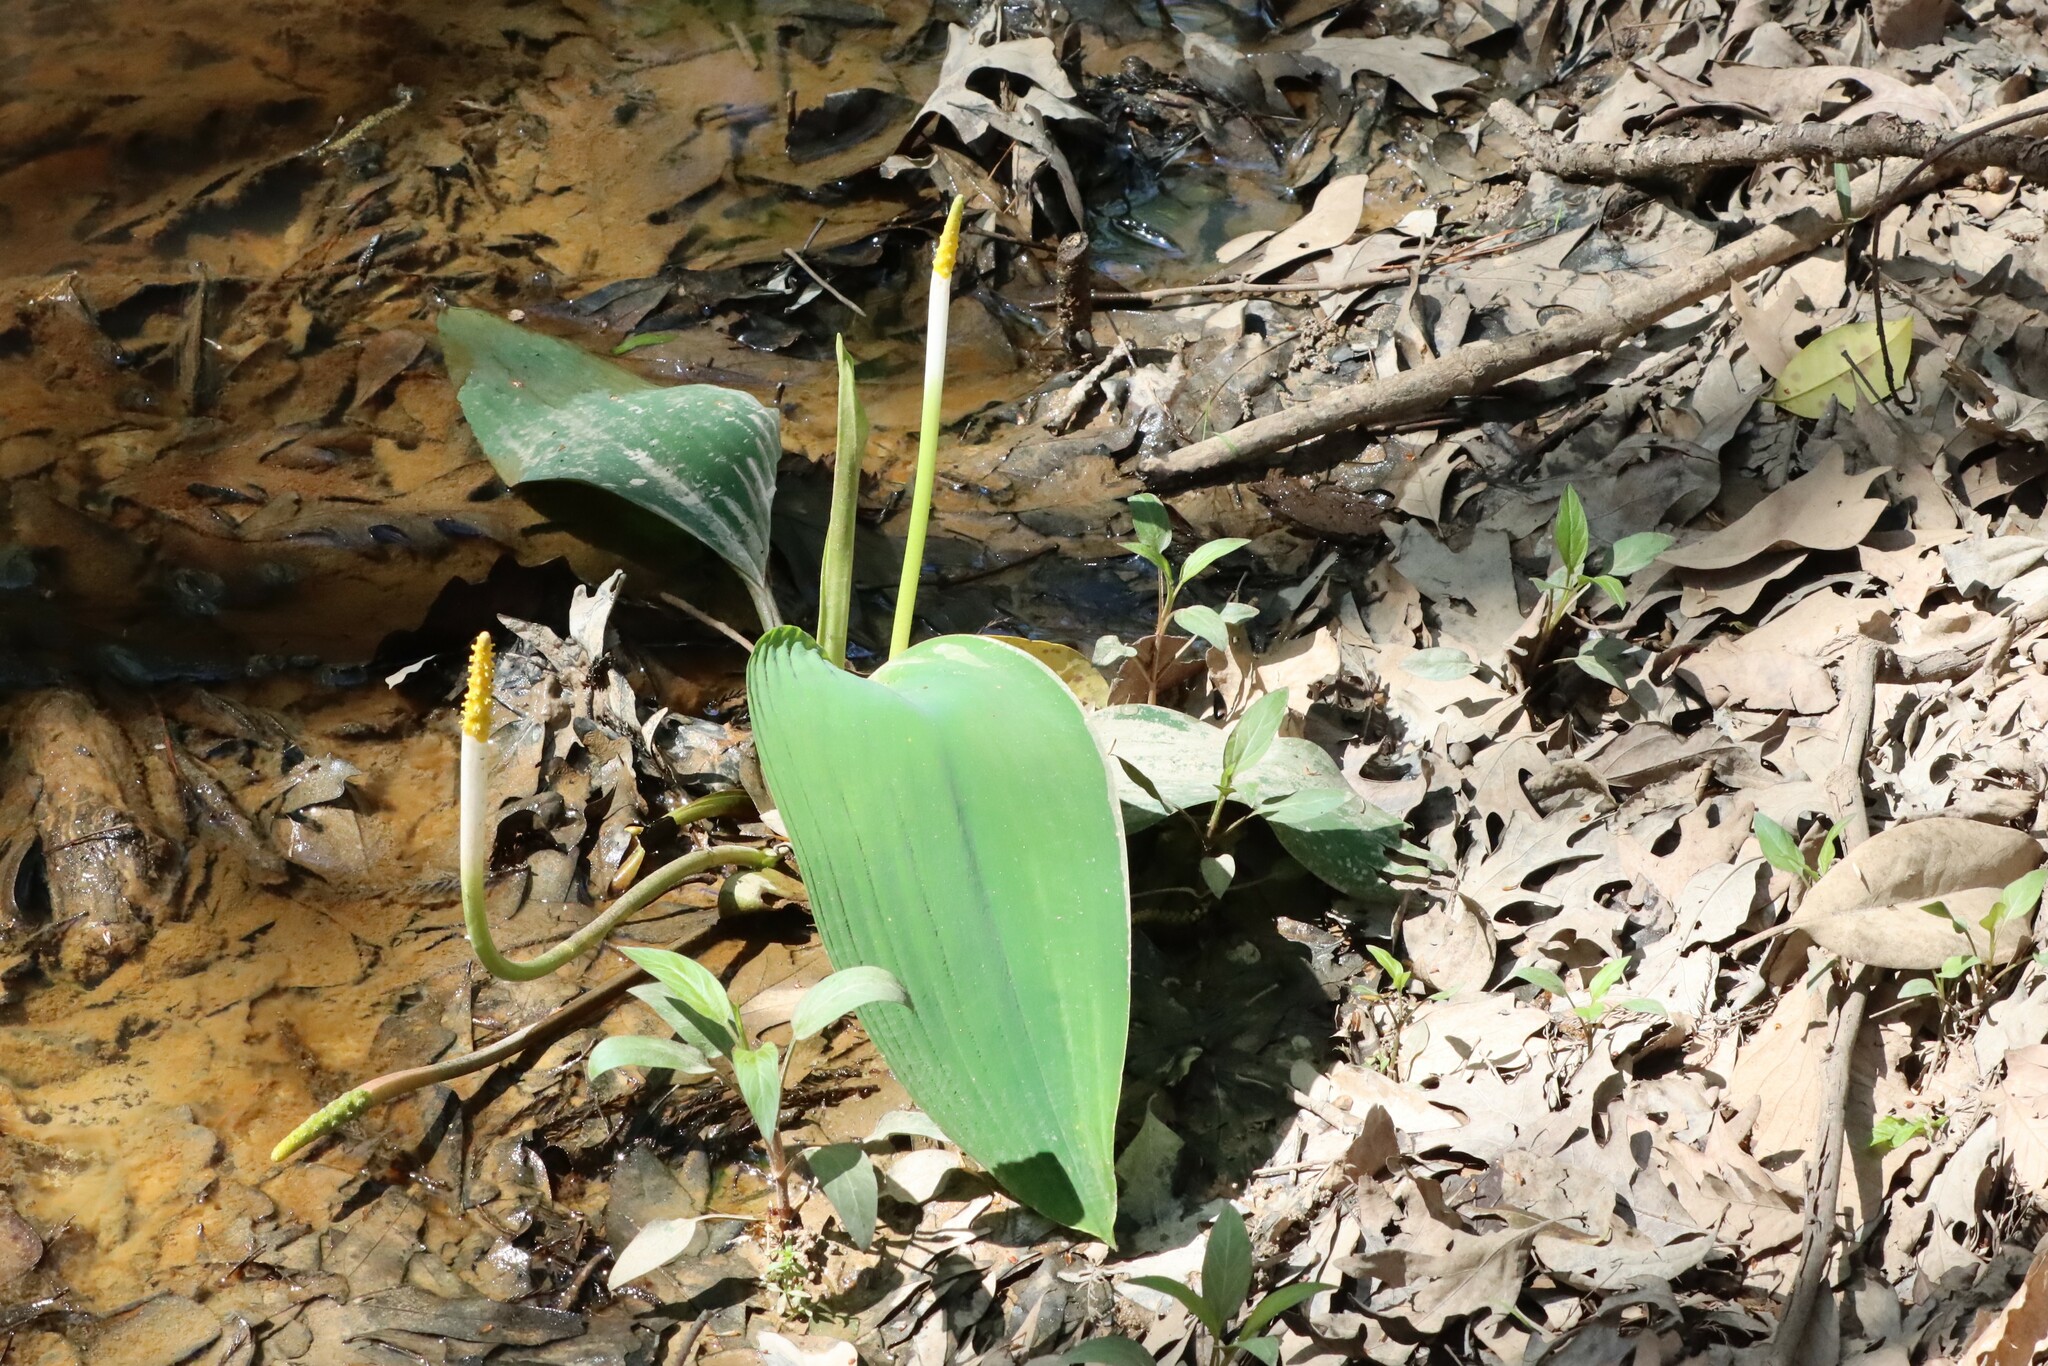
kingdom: Plantae
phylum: Tracheophyta
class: Liliopsida
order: Alismatales
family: Araceae
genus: Orontium
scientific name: Orontium aquaticum
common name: Golden-club
